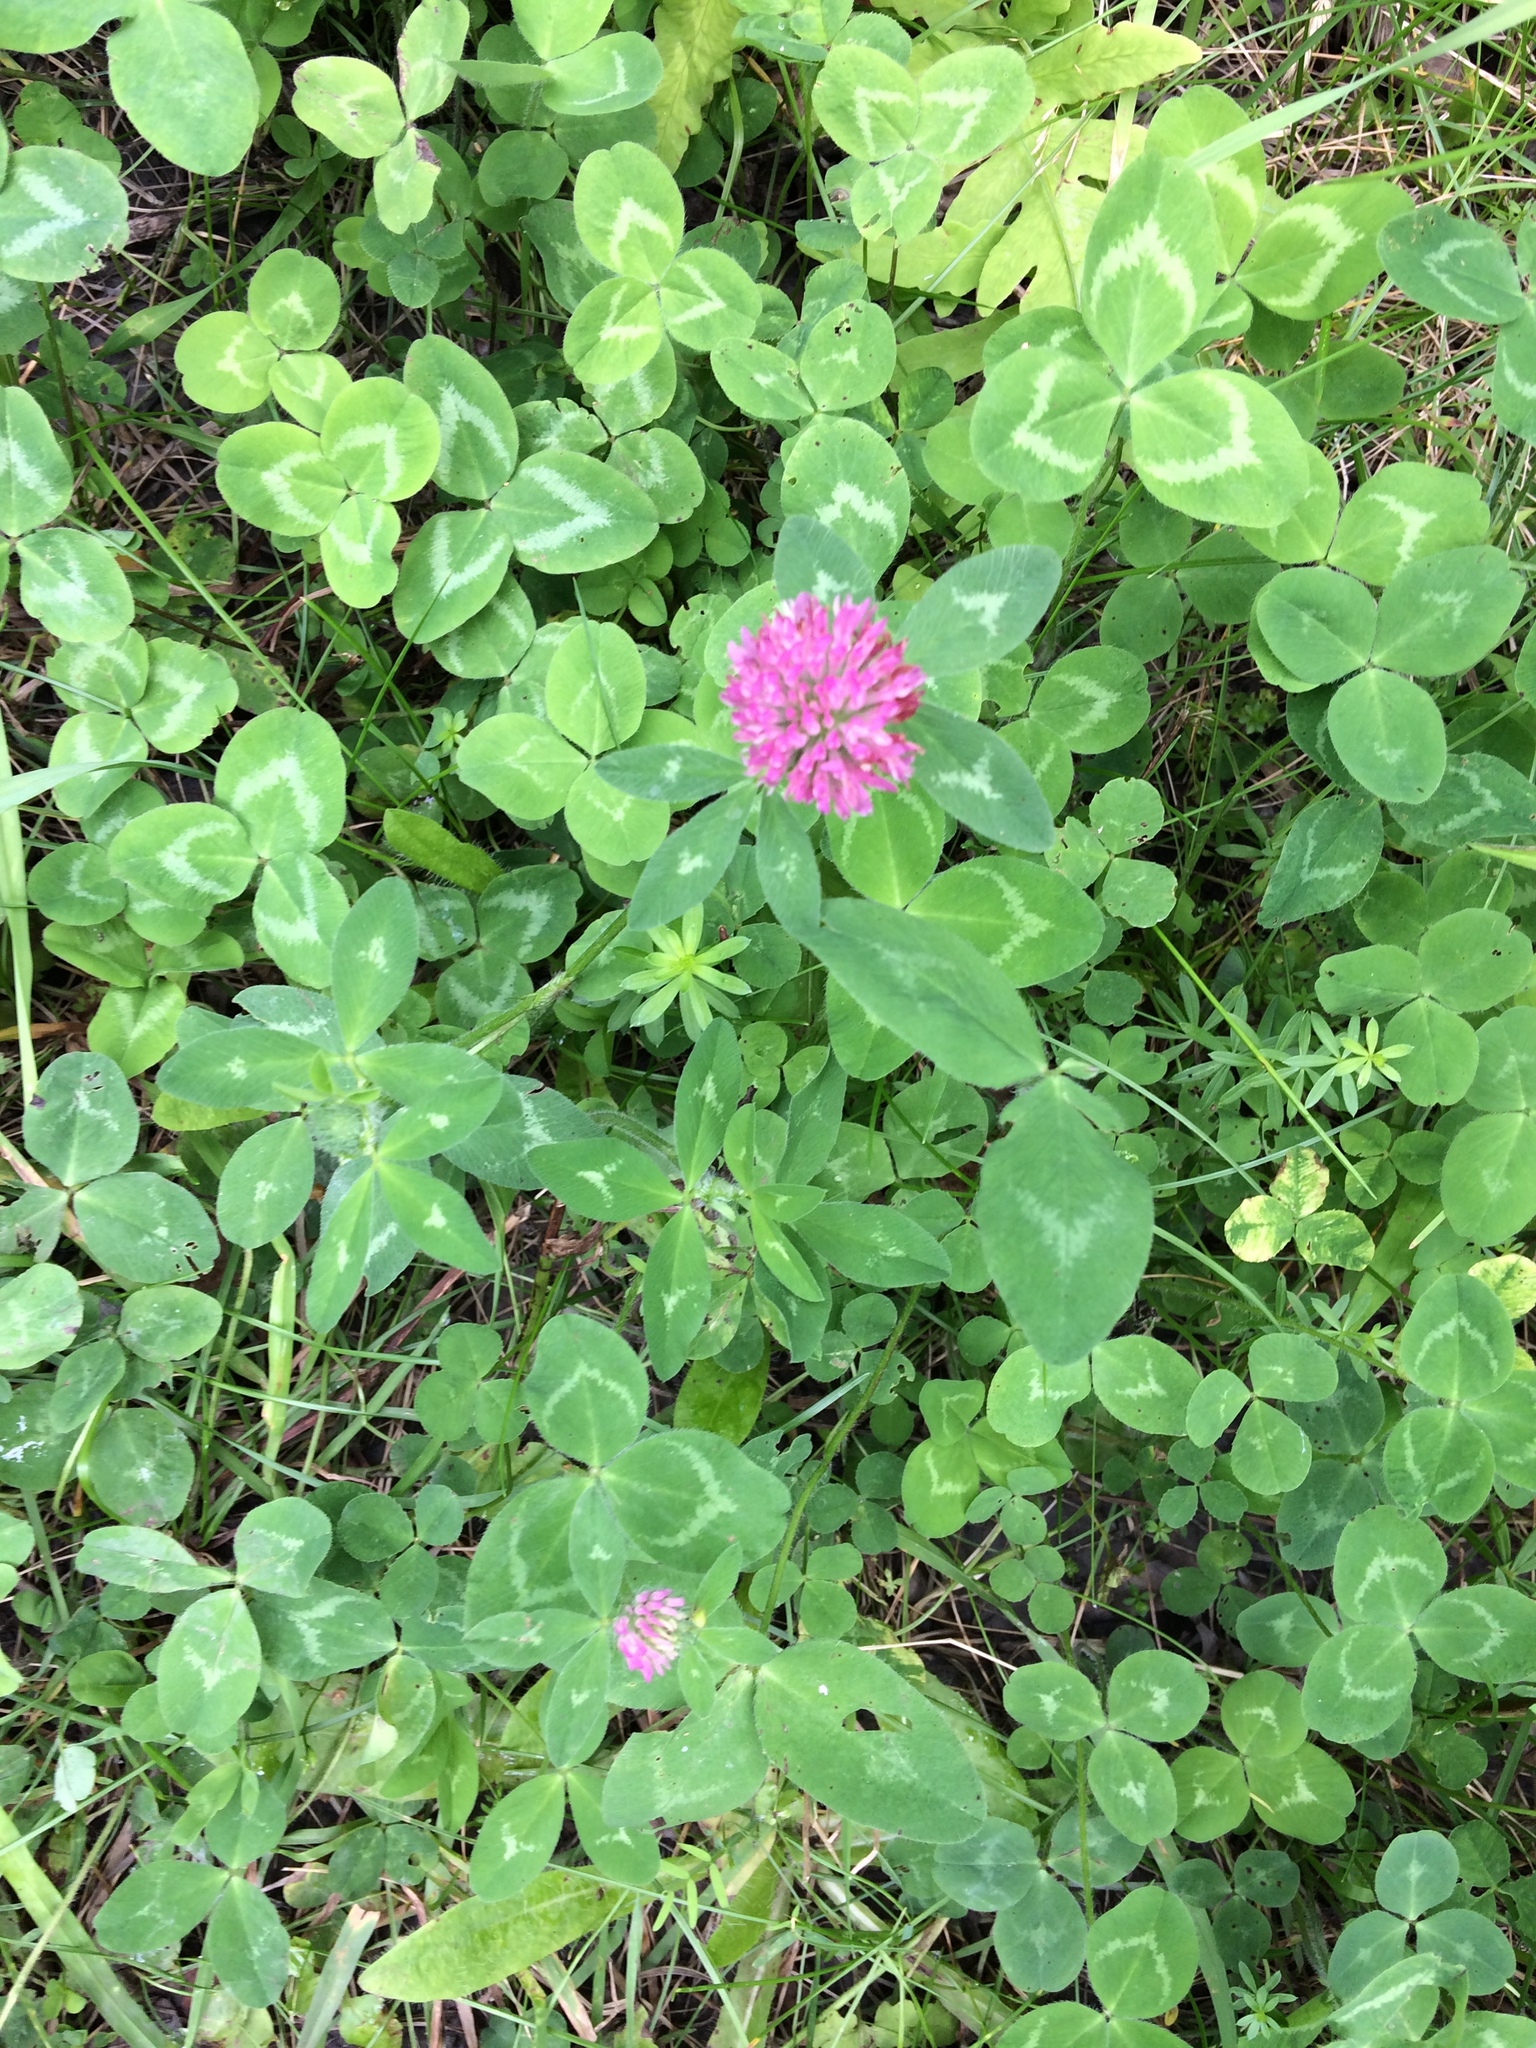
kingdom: Plantae
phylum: Tracheophyta
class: Magnoliopsida
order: Fabales
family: Fabaceae
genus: Trifolium
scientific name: Trifolium pratense
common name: Red clover
